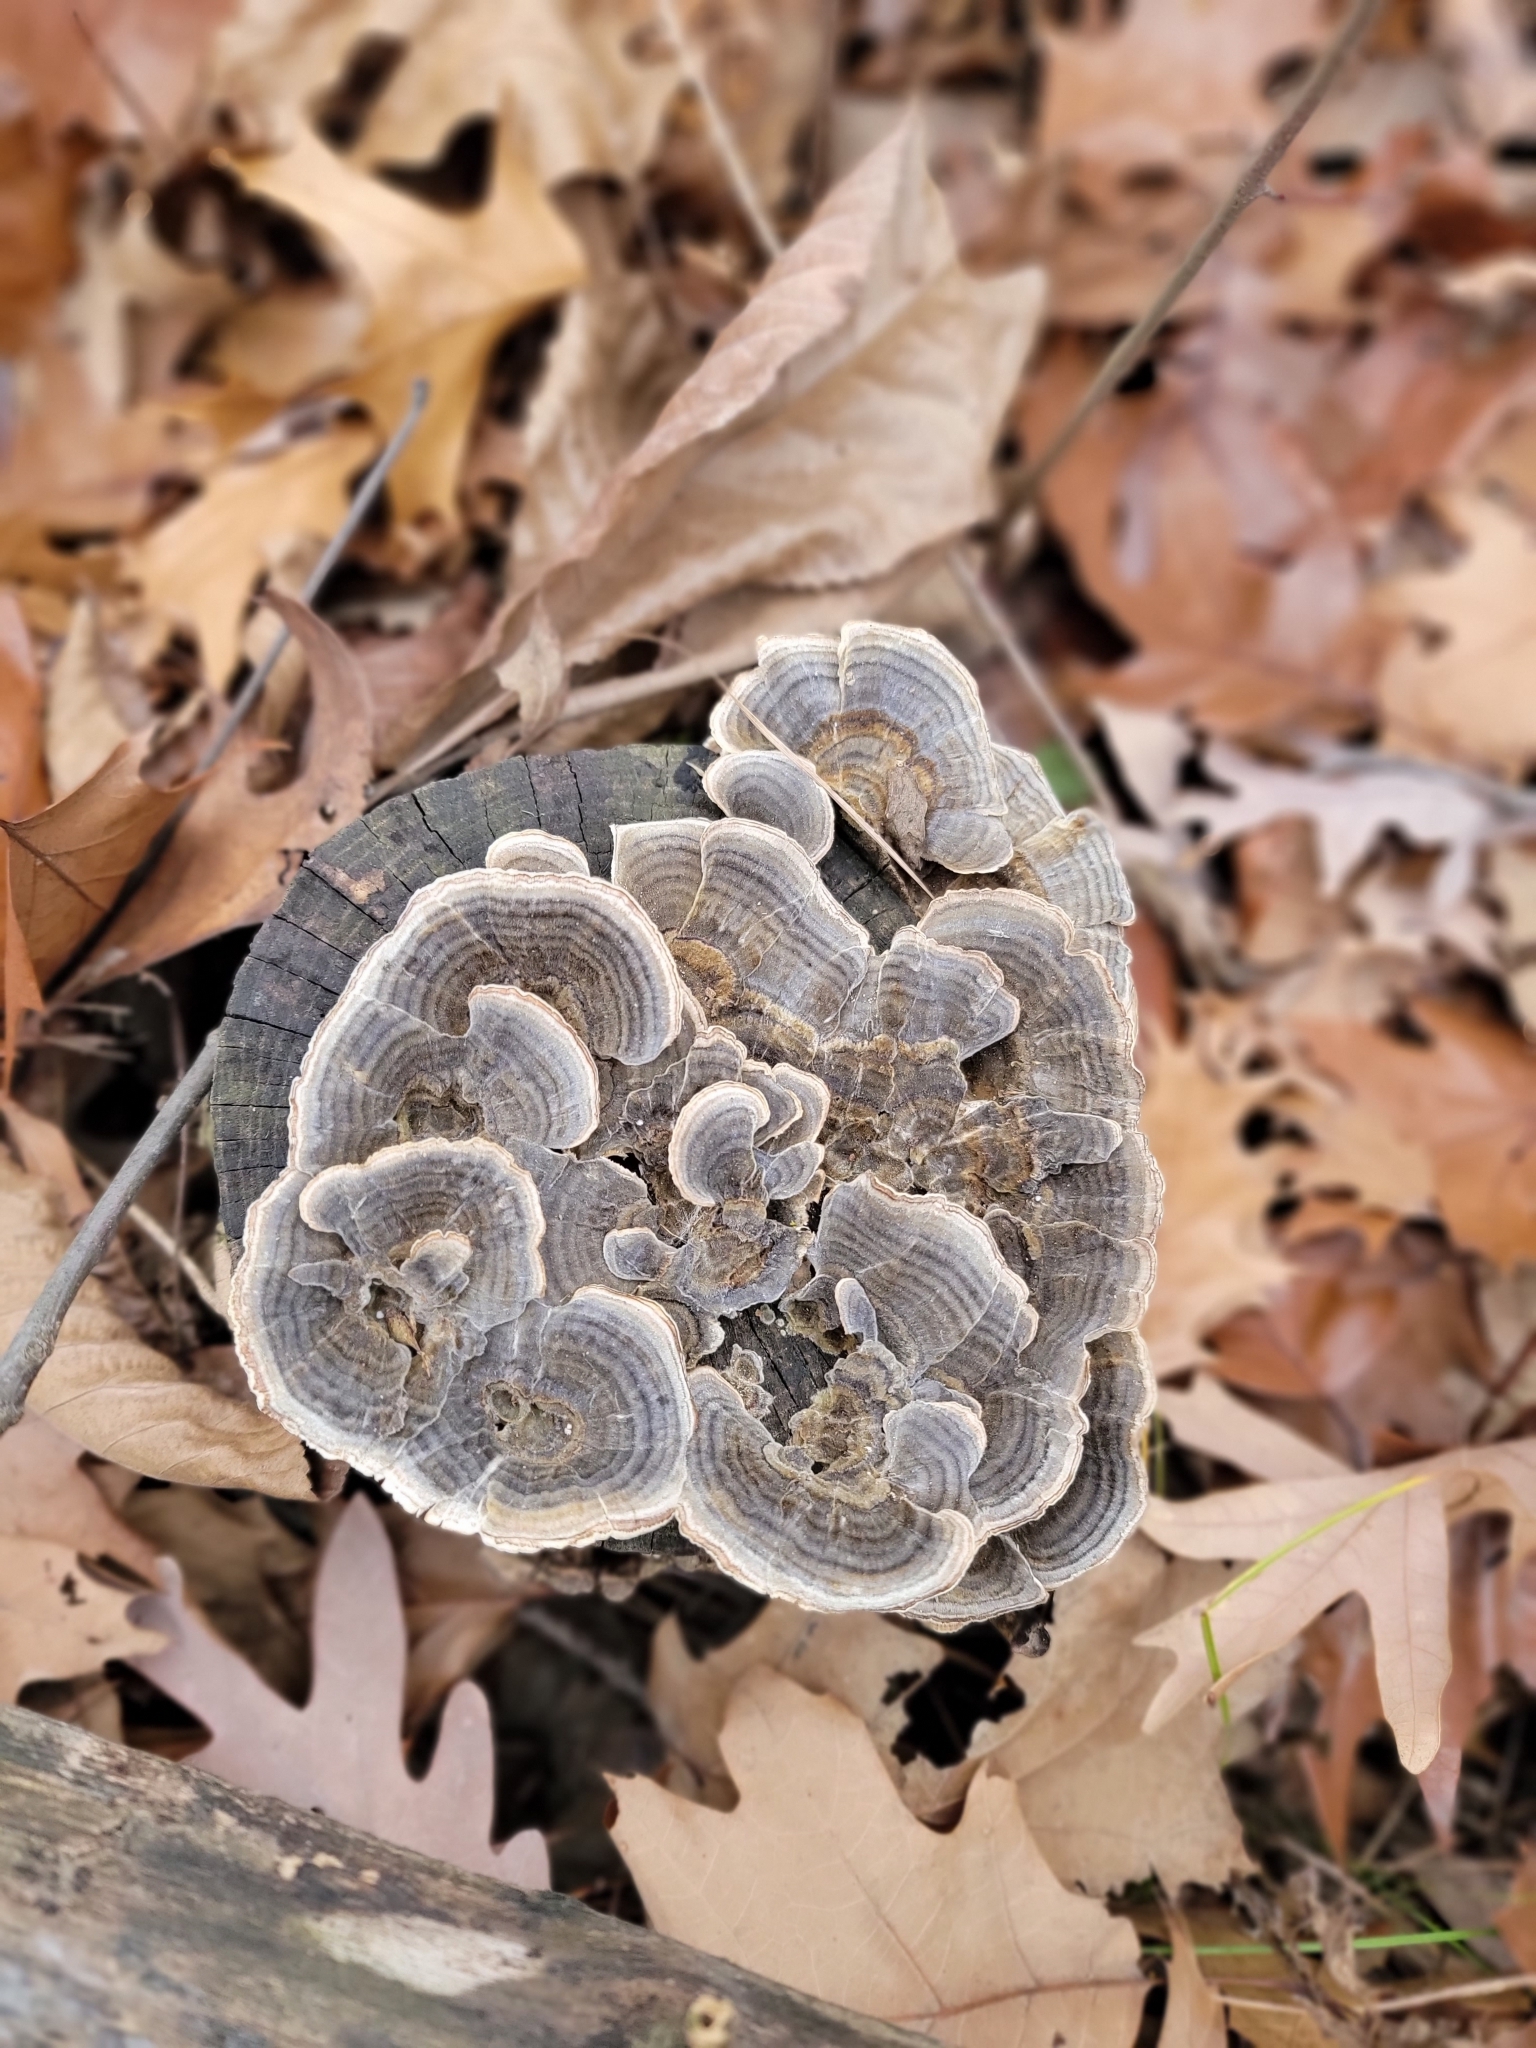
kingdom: Fungi
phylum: Basidiomycota
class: Agaricomycetes
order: Polyporales
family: Polyporaceae
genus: Trametes
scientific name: Trametes versicolor
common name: Turkeytail
